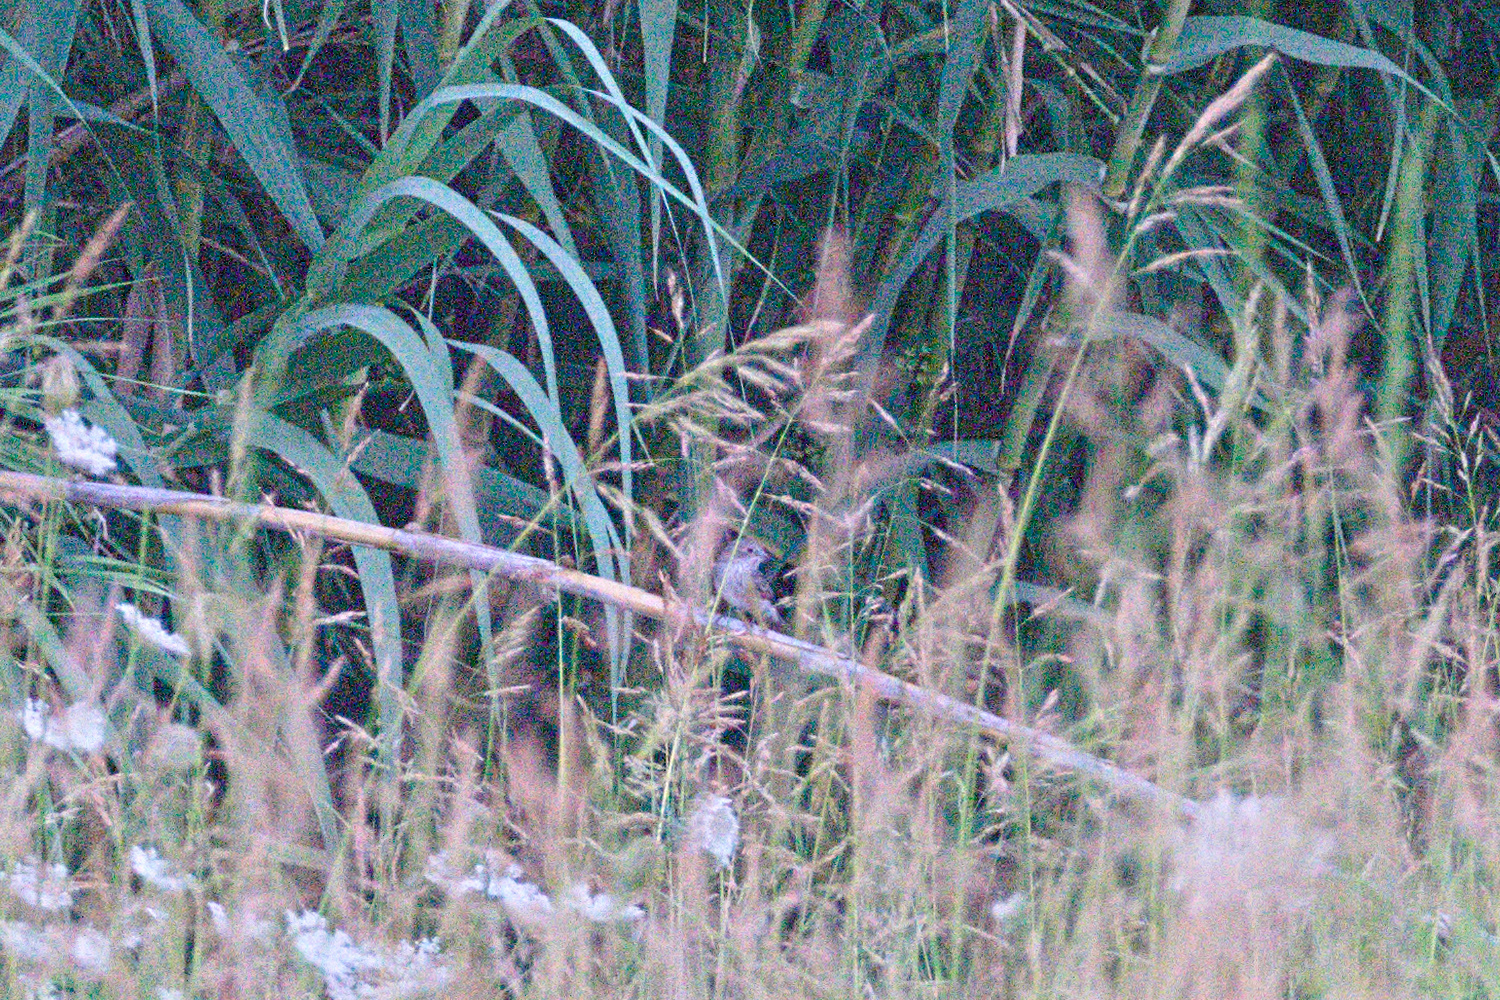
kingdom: Animalia
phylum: Chordata
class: Aves
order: Passeriformes
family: Muscicapidae
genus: Muscicapa
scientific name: Muscicapa striata
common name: Spotted flycatcher
